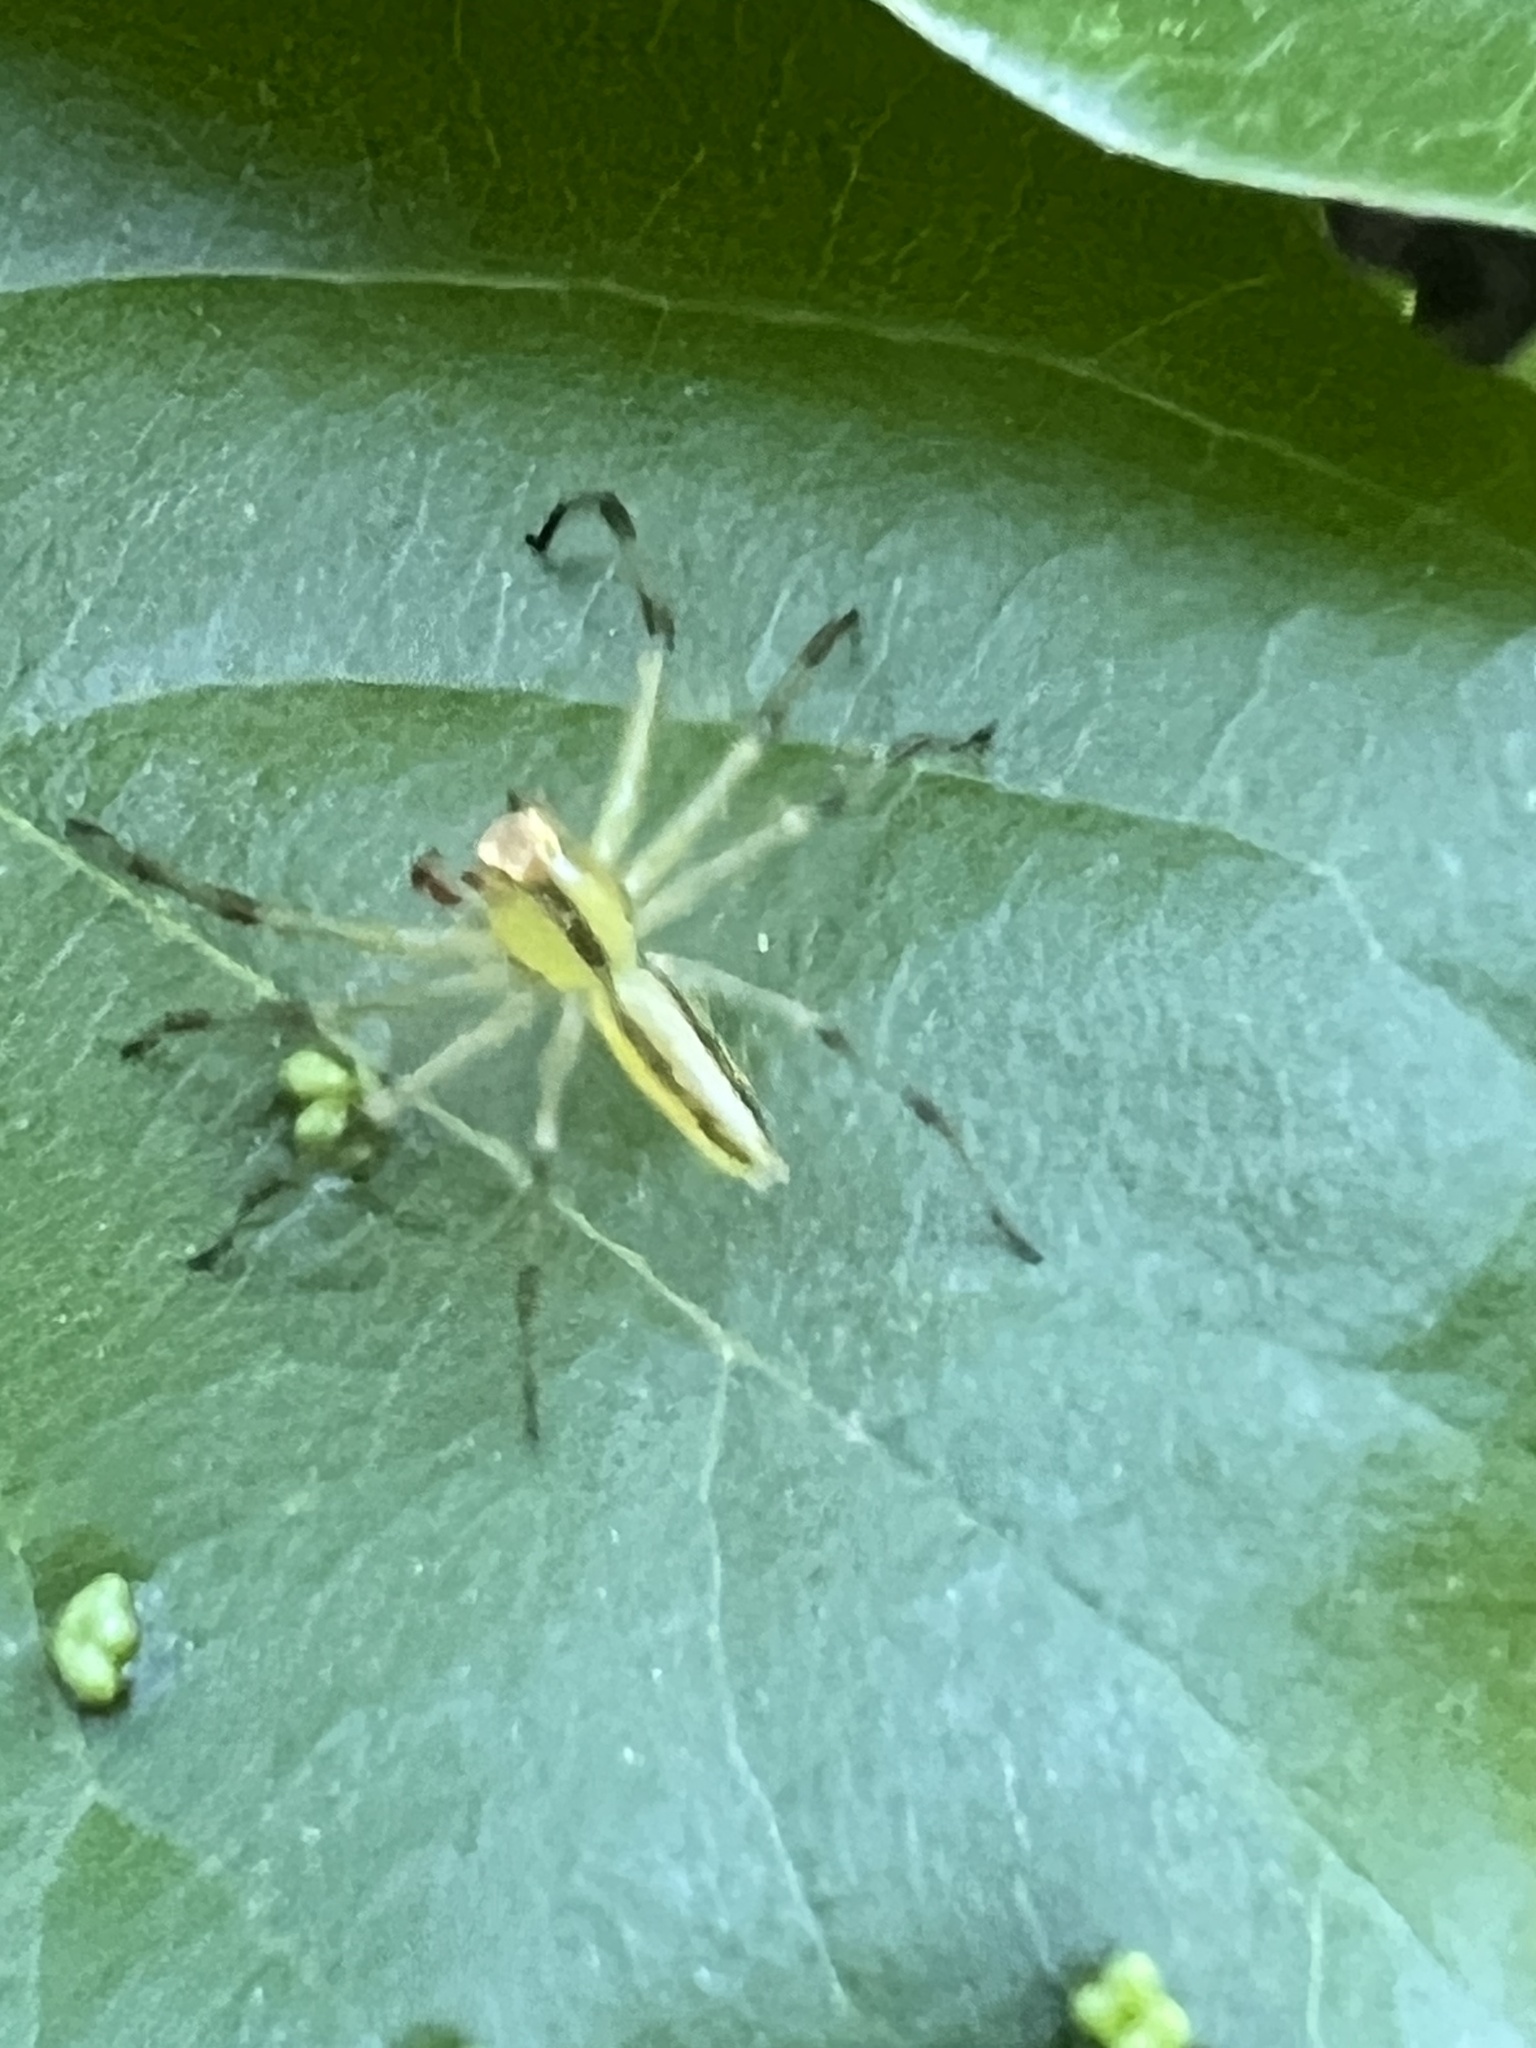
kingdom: Animalia
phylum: Arthropoda
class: Arachnida
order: Araneae
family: Salticidae
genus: Lyssomanes
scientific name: Lyssomanes viridis
